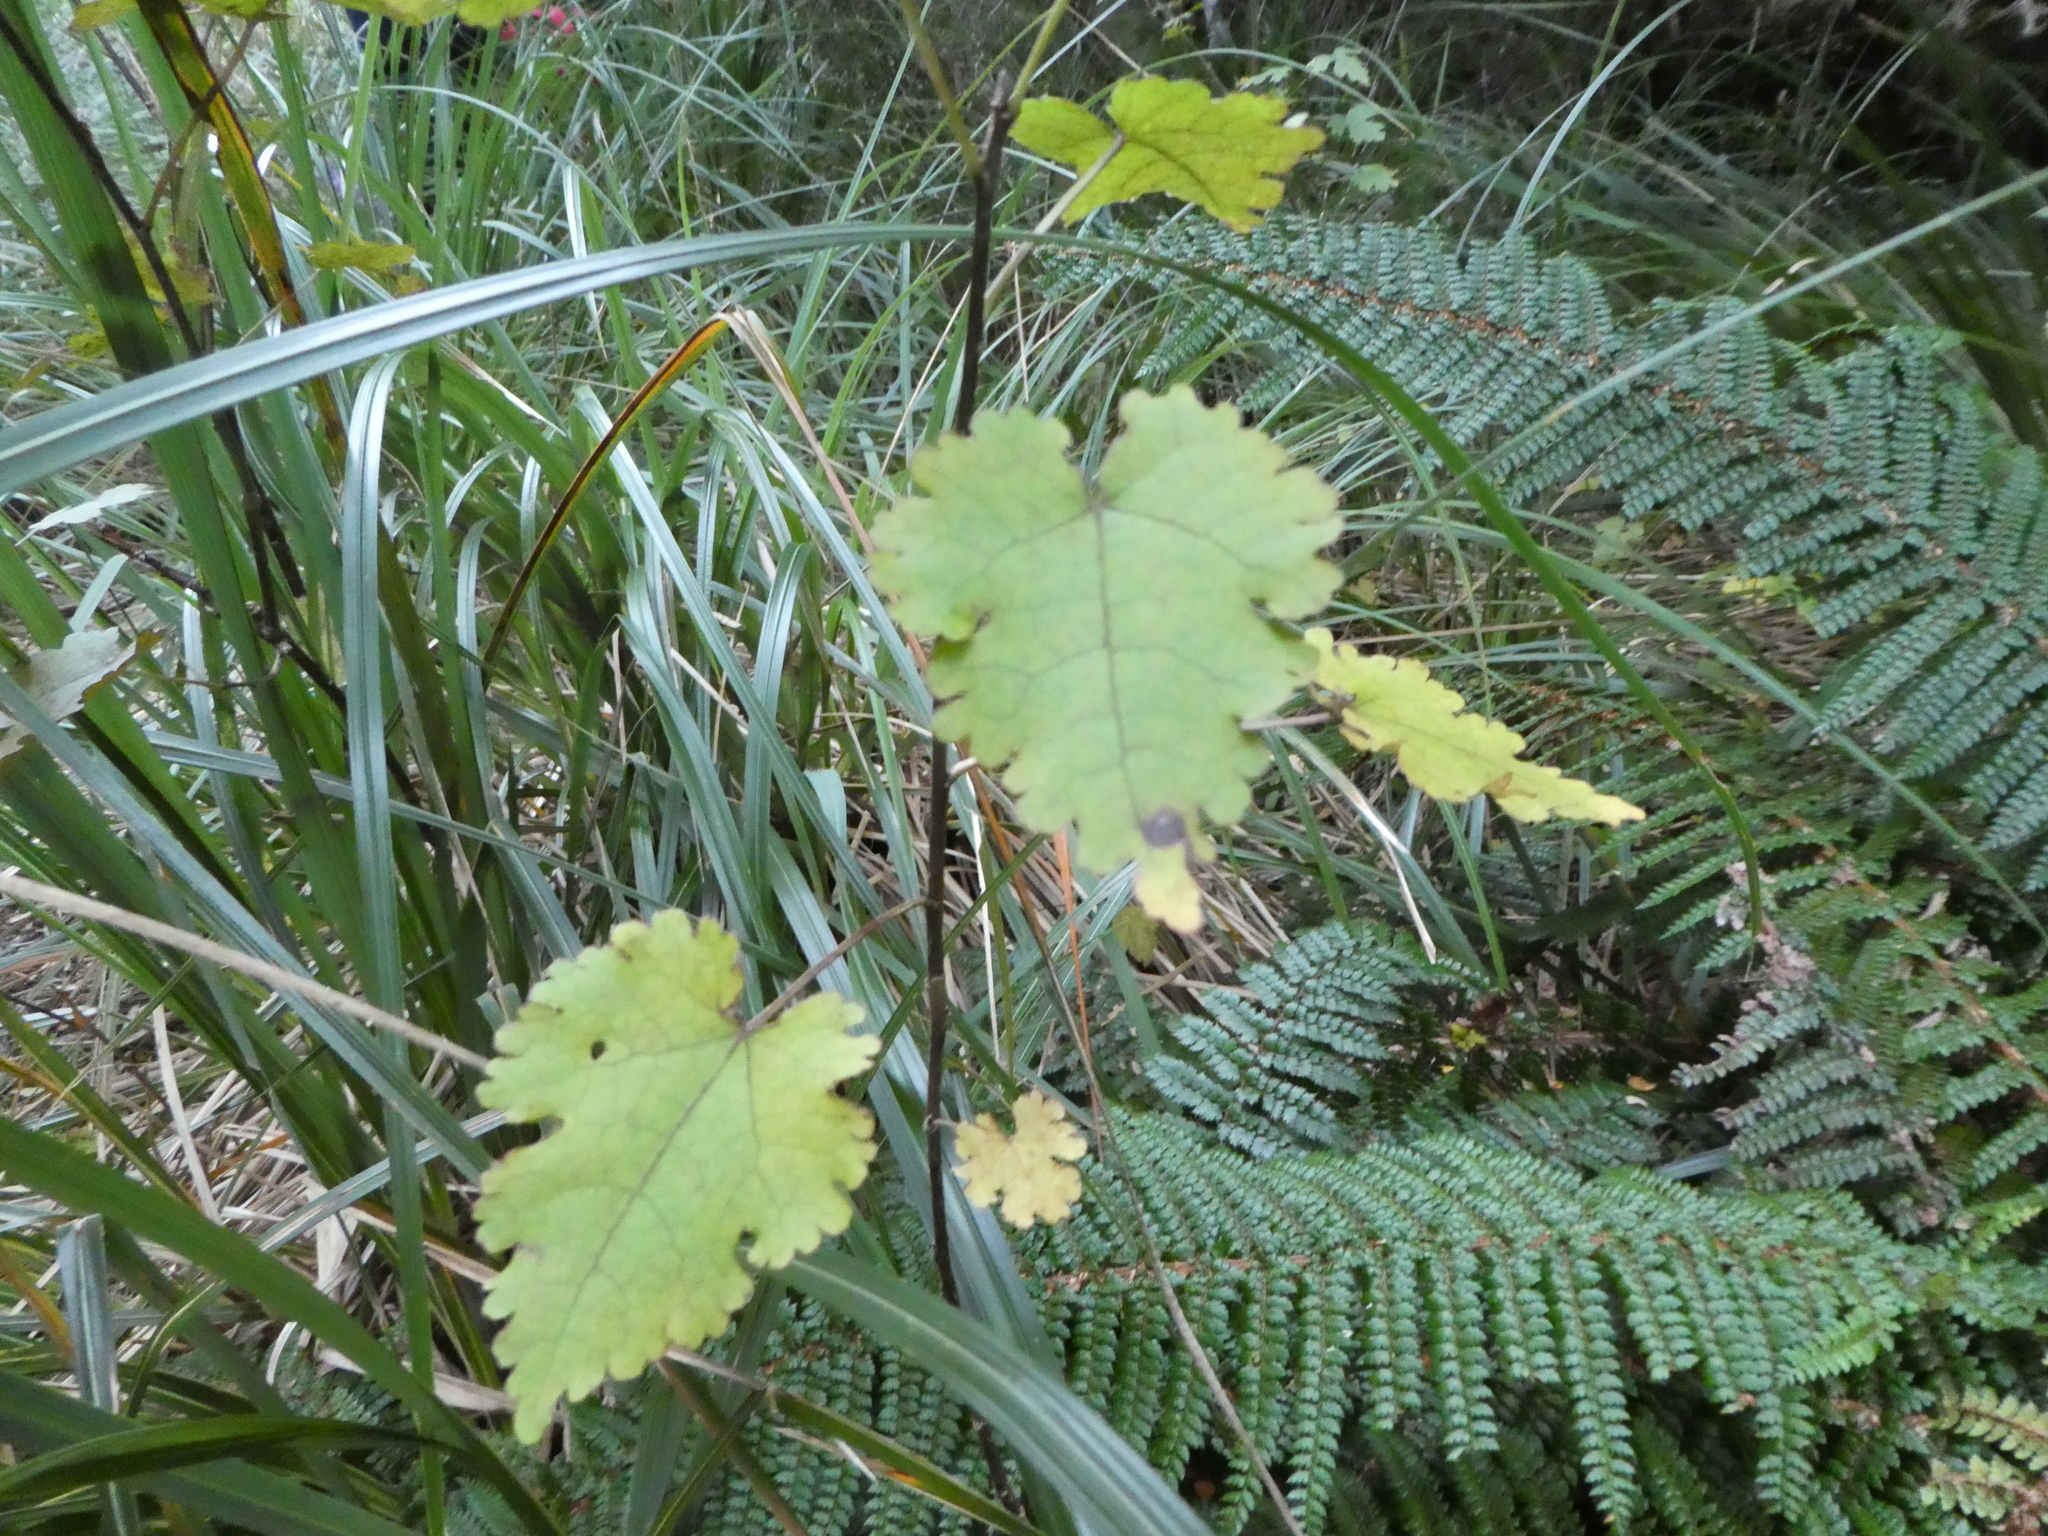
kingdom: Plantae
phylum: Tracheophyta
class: Magnoliopsida
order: Malvales
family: Malvaceae
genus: Hoheria
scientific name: Hoheria glabrata
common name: Mountain-ribbon
